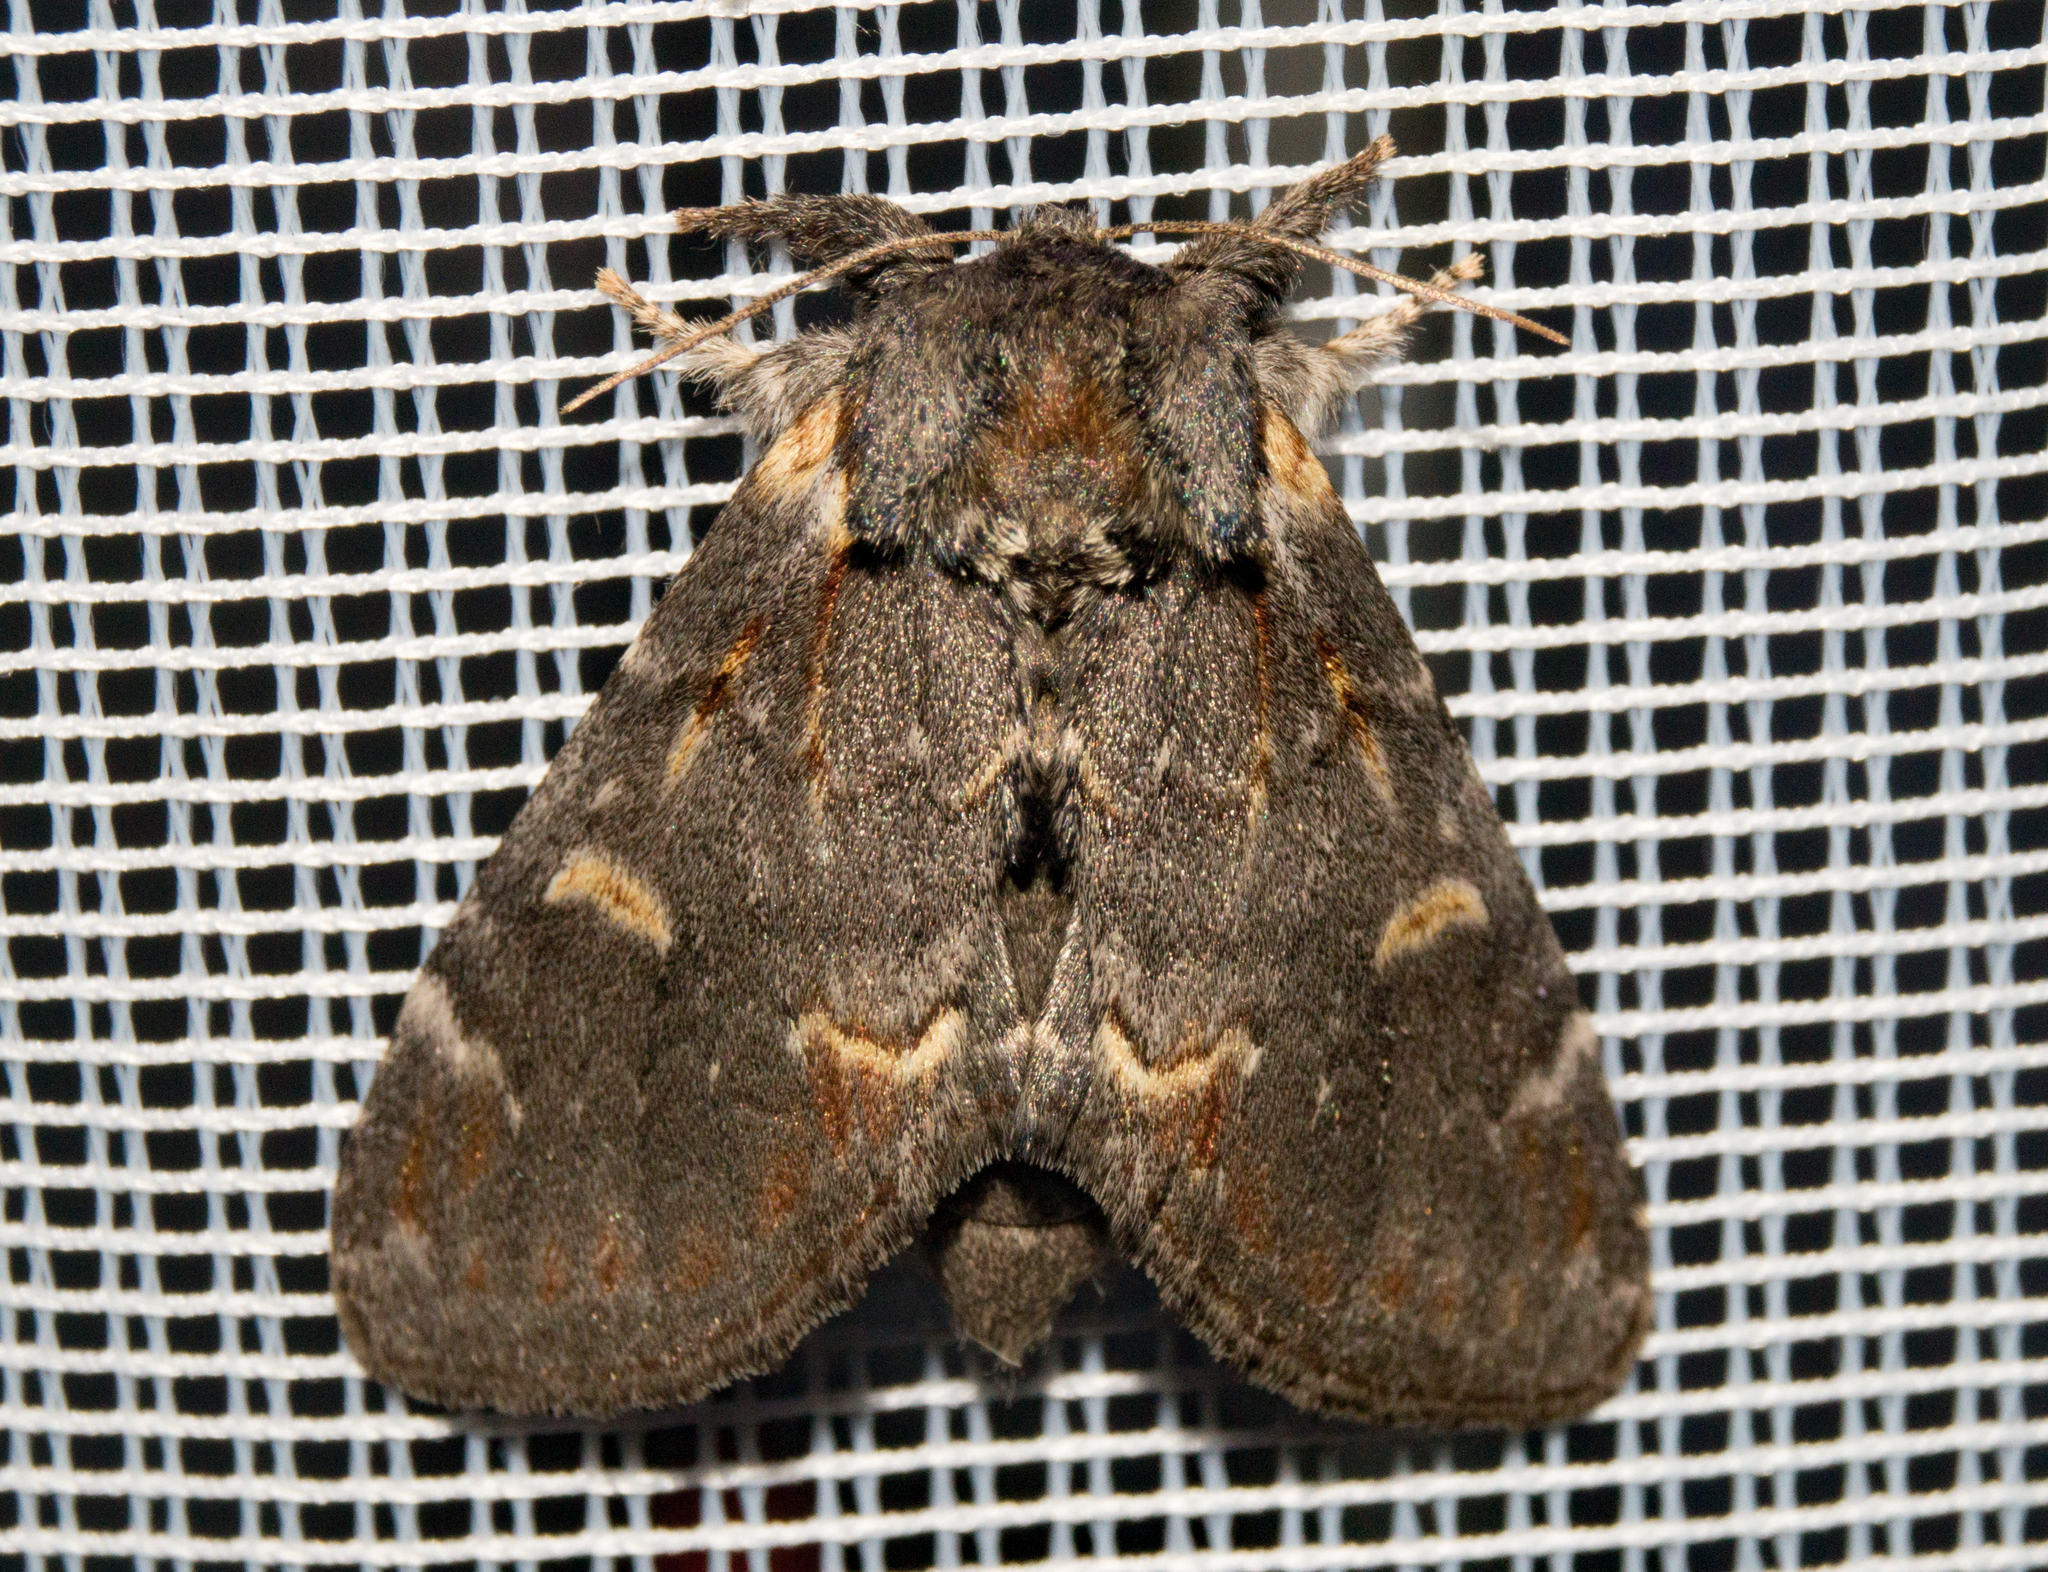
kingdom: Animalia
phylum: Arthropoda
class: Insecta
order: Lepidoptera
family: Notodontidae
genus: Notodonta
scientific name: Notodonta dromedarius
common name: Iron prominent
